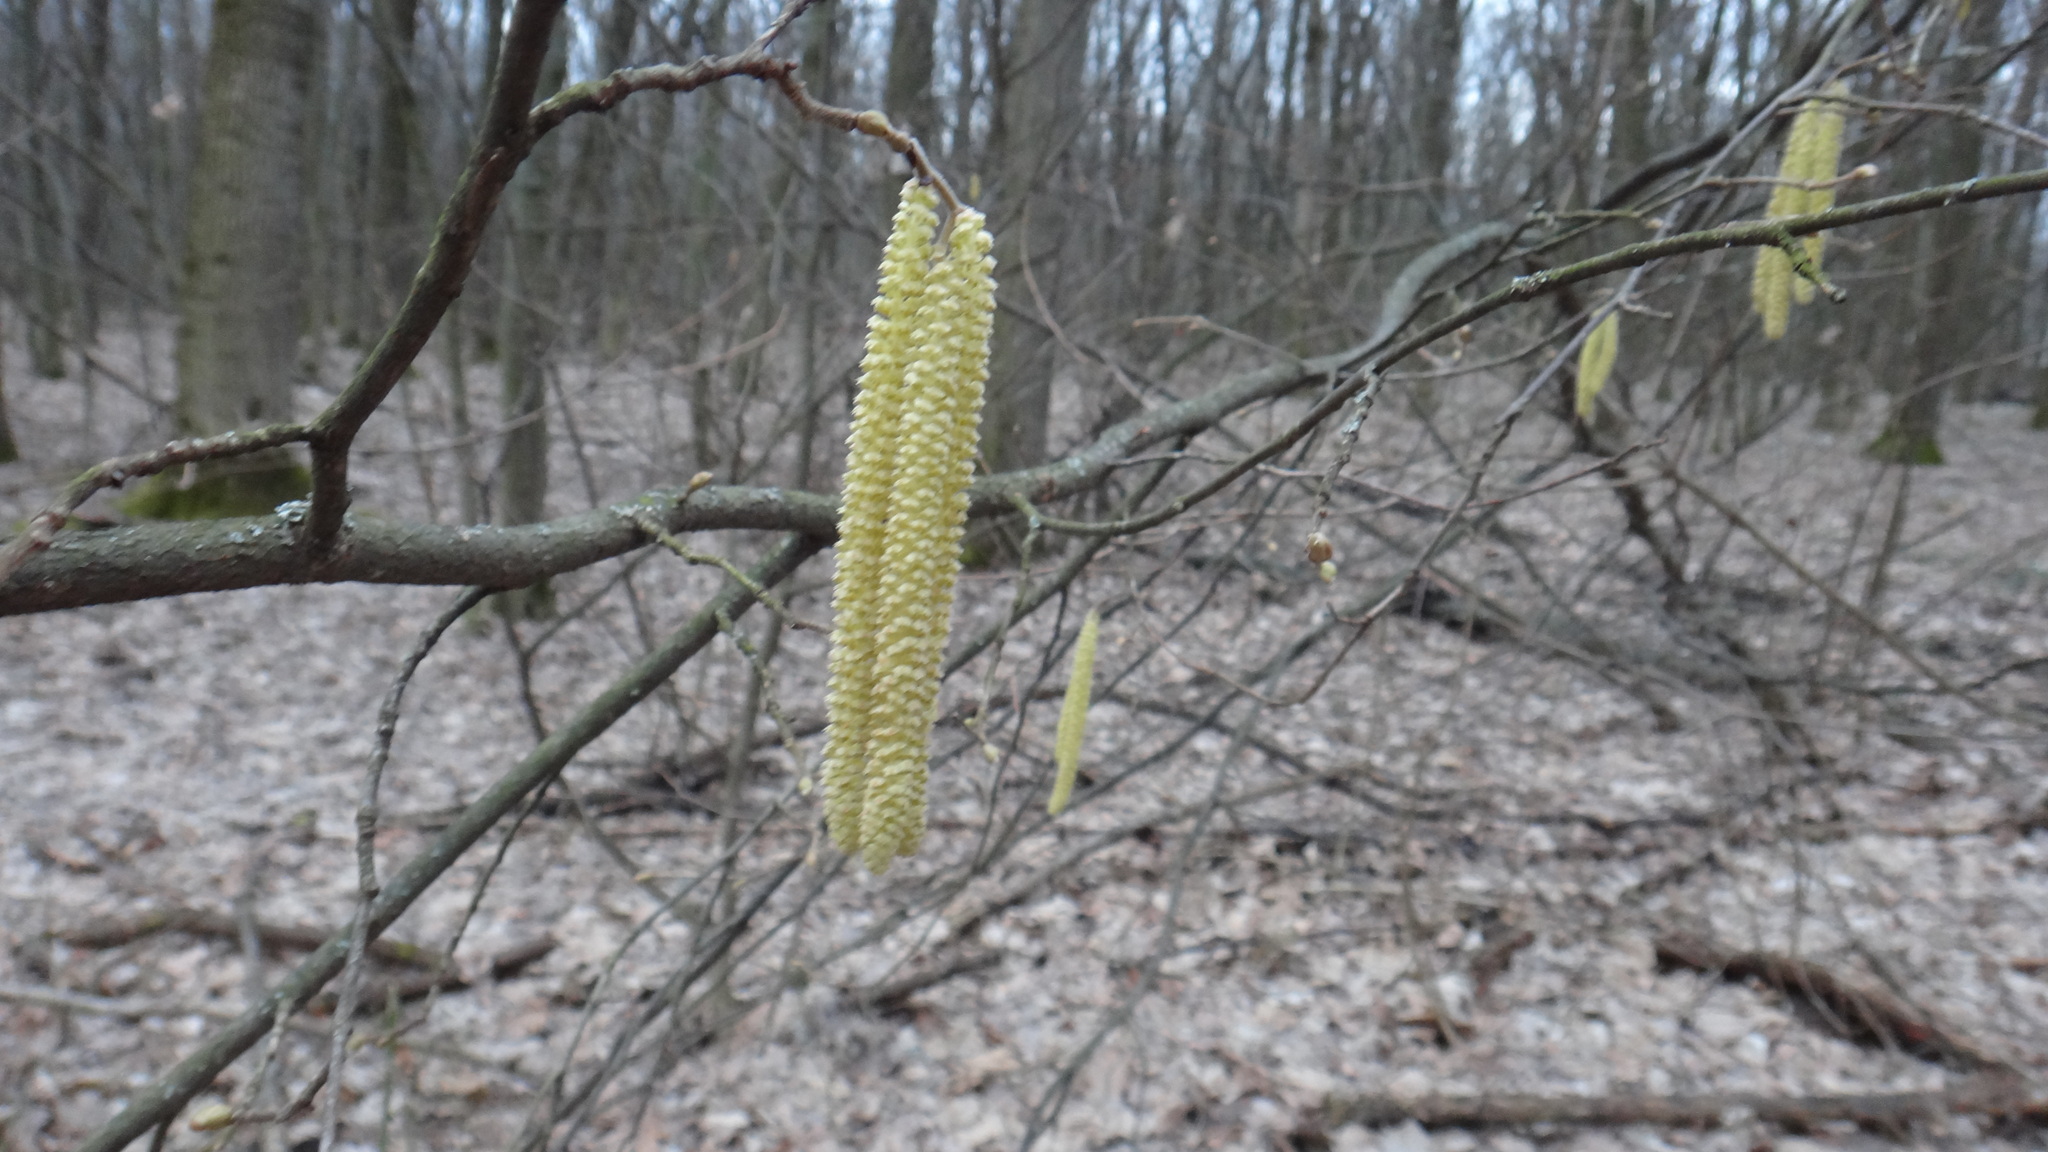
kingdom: Plantae
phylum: Tracheophyta
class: Magnoliopsida
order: Fagales
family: Betulaceae
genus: Corylus
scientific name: Corylus avellana
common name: European hazel
